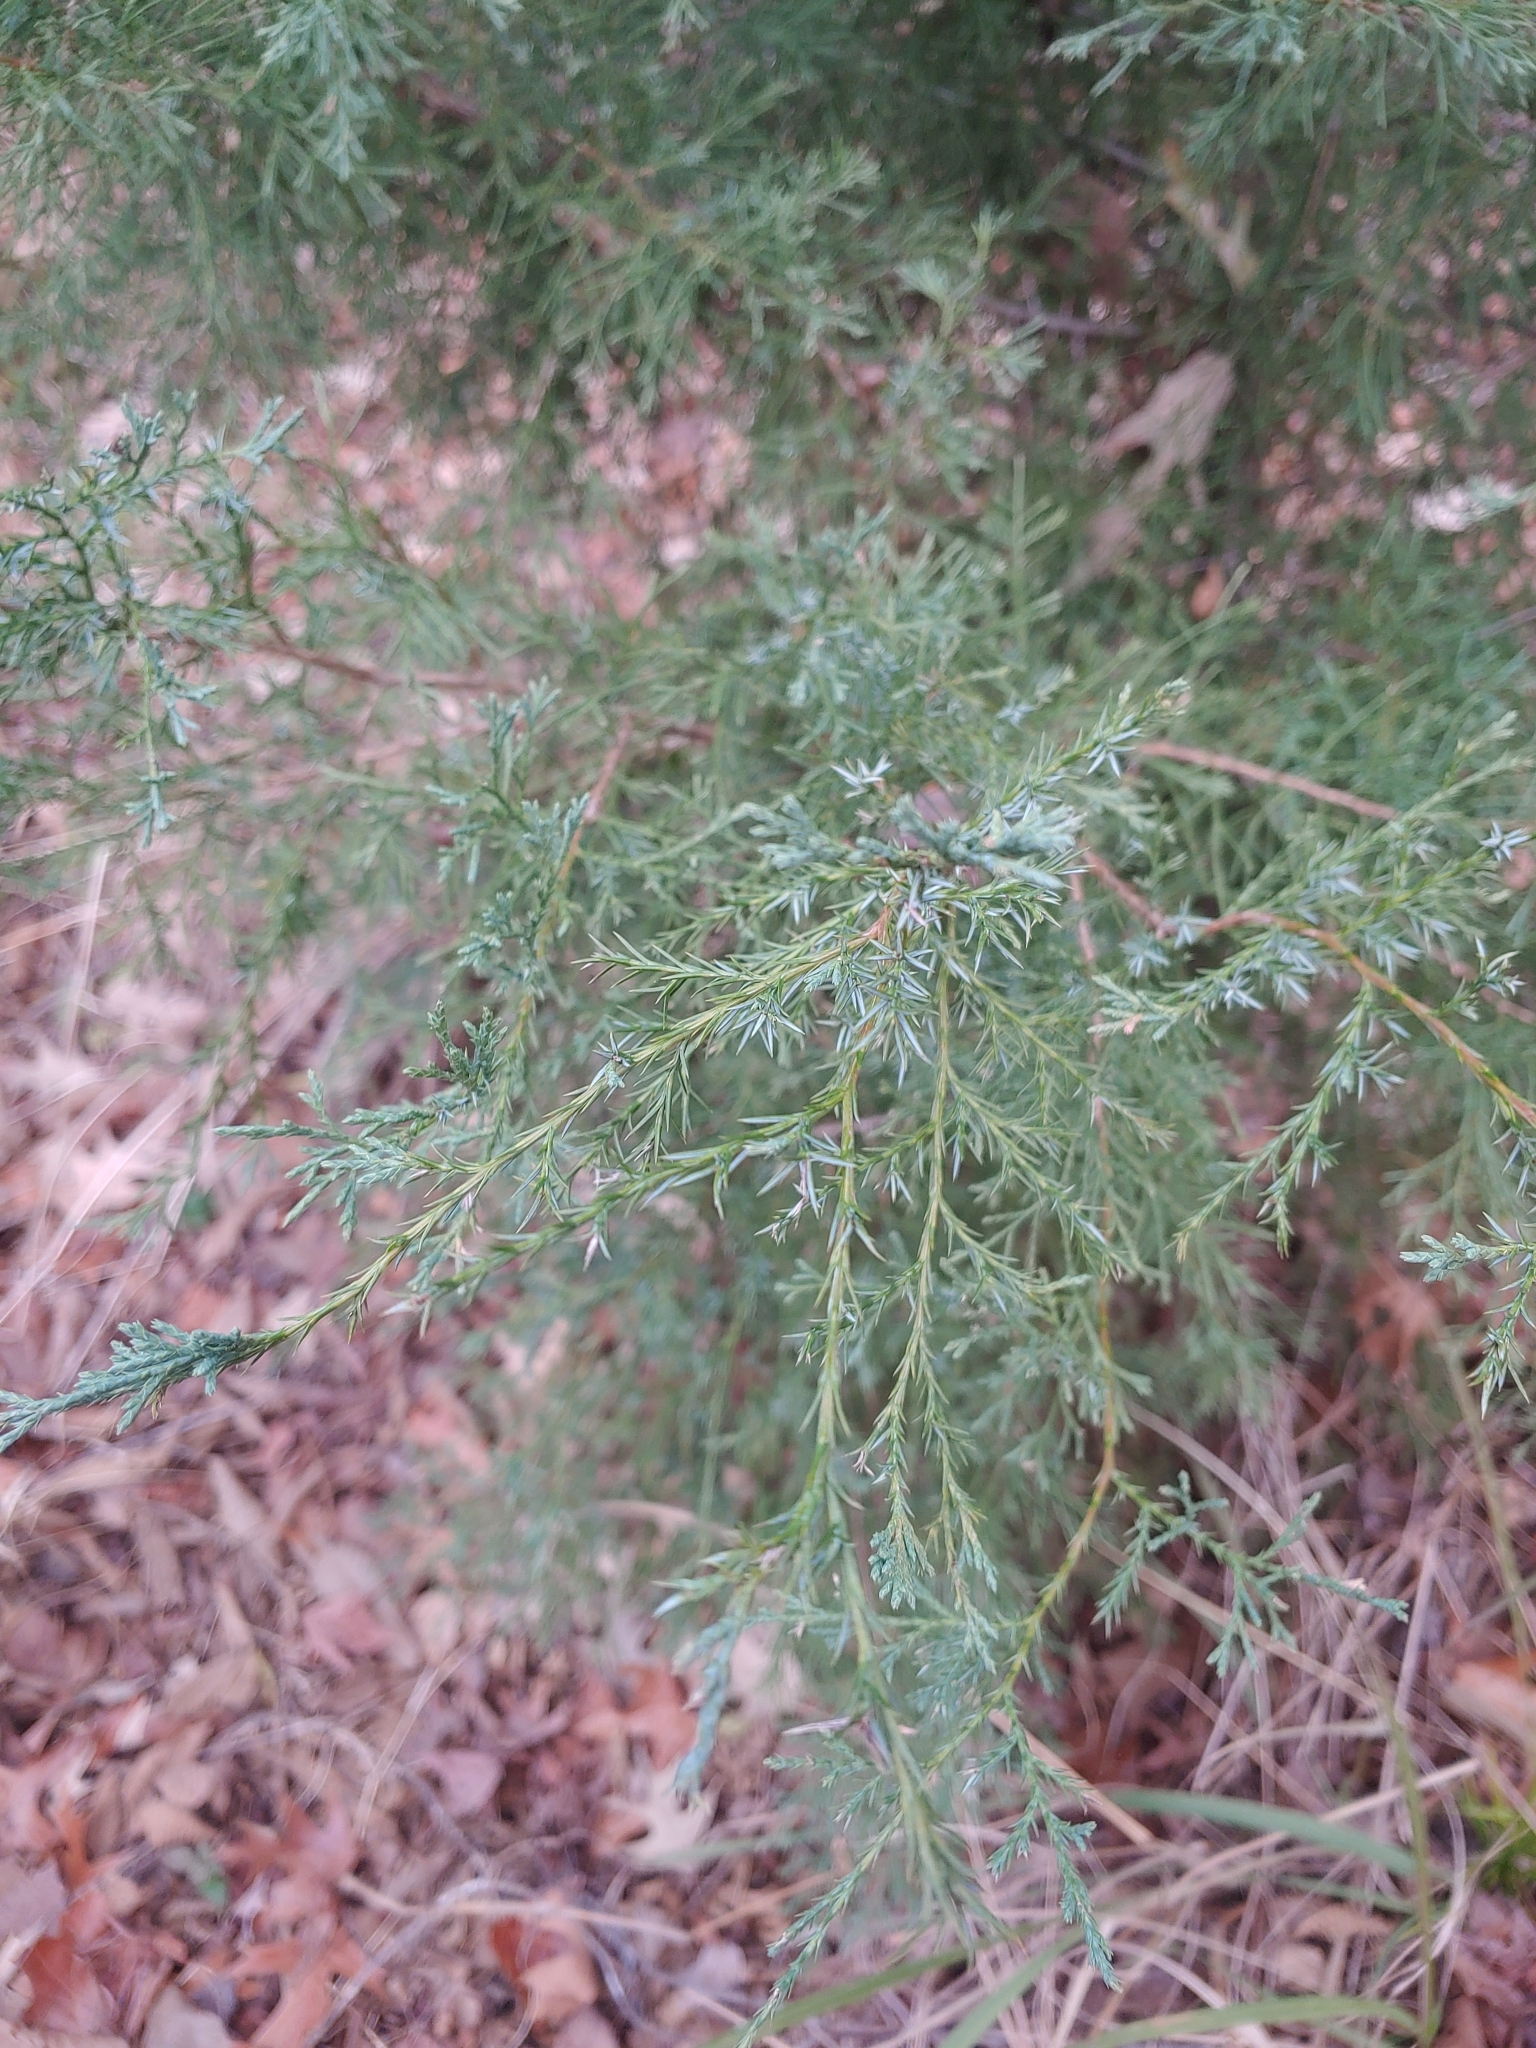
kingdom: Plantae
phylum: Tracheophyta
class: Pinopsida
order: Pinales
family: Cupressaceae
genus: Juniperus
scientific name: Juniperus virginiana
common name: Red juniper
